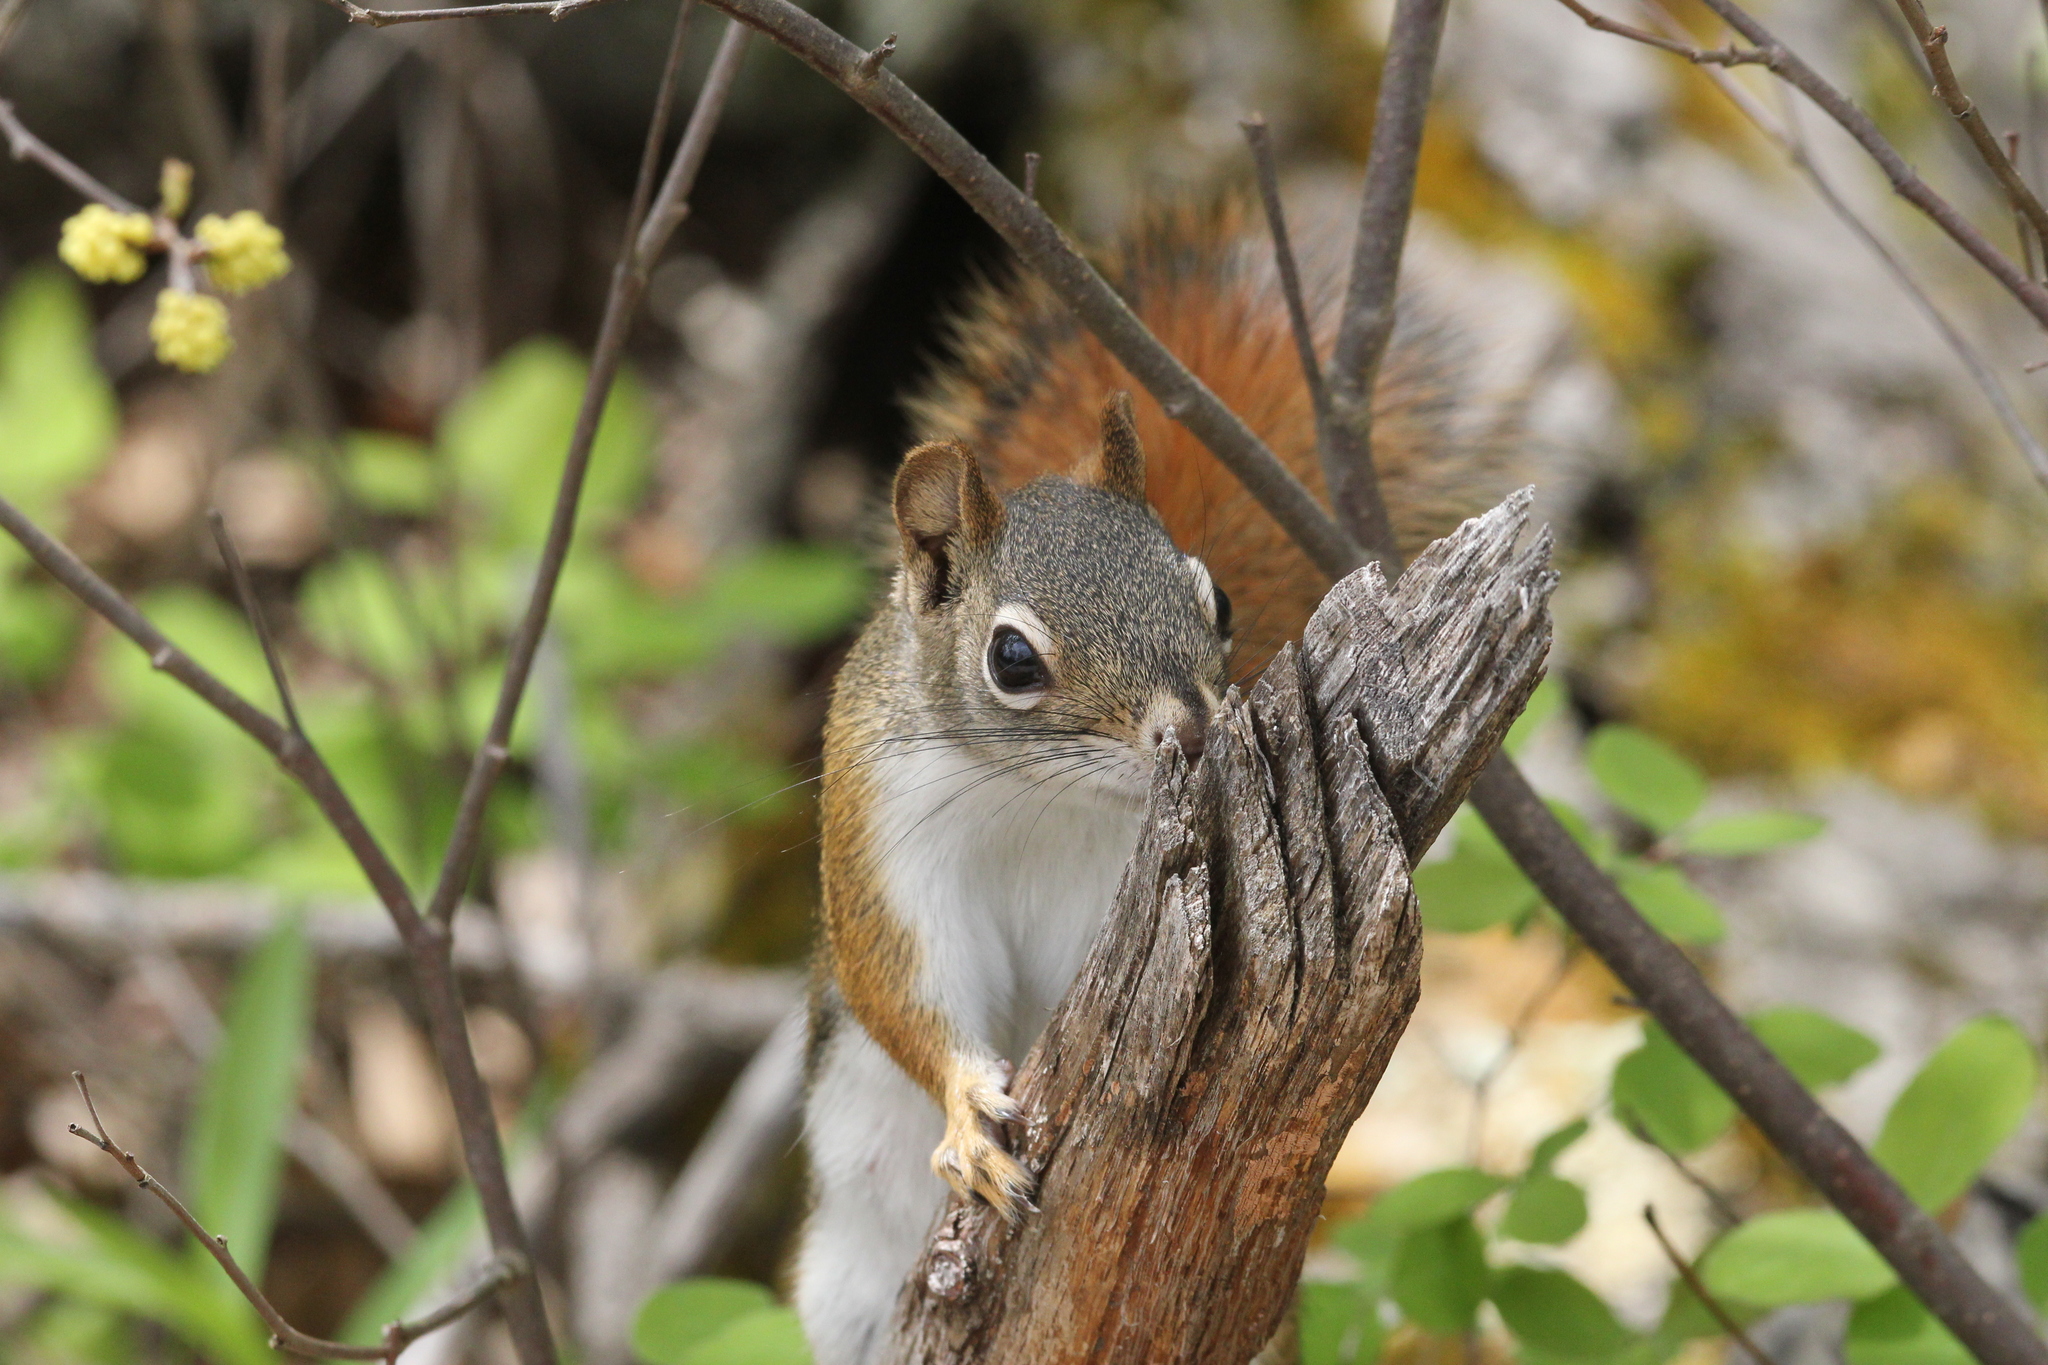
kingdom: Animalia
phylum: Chordata
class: Mammalia
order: Rodentia
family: Sciuridae
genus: Tamiasciurus
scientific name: Tamiasciurus hudsonicus
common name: Red squirrel
